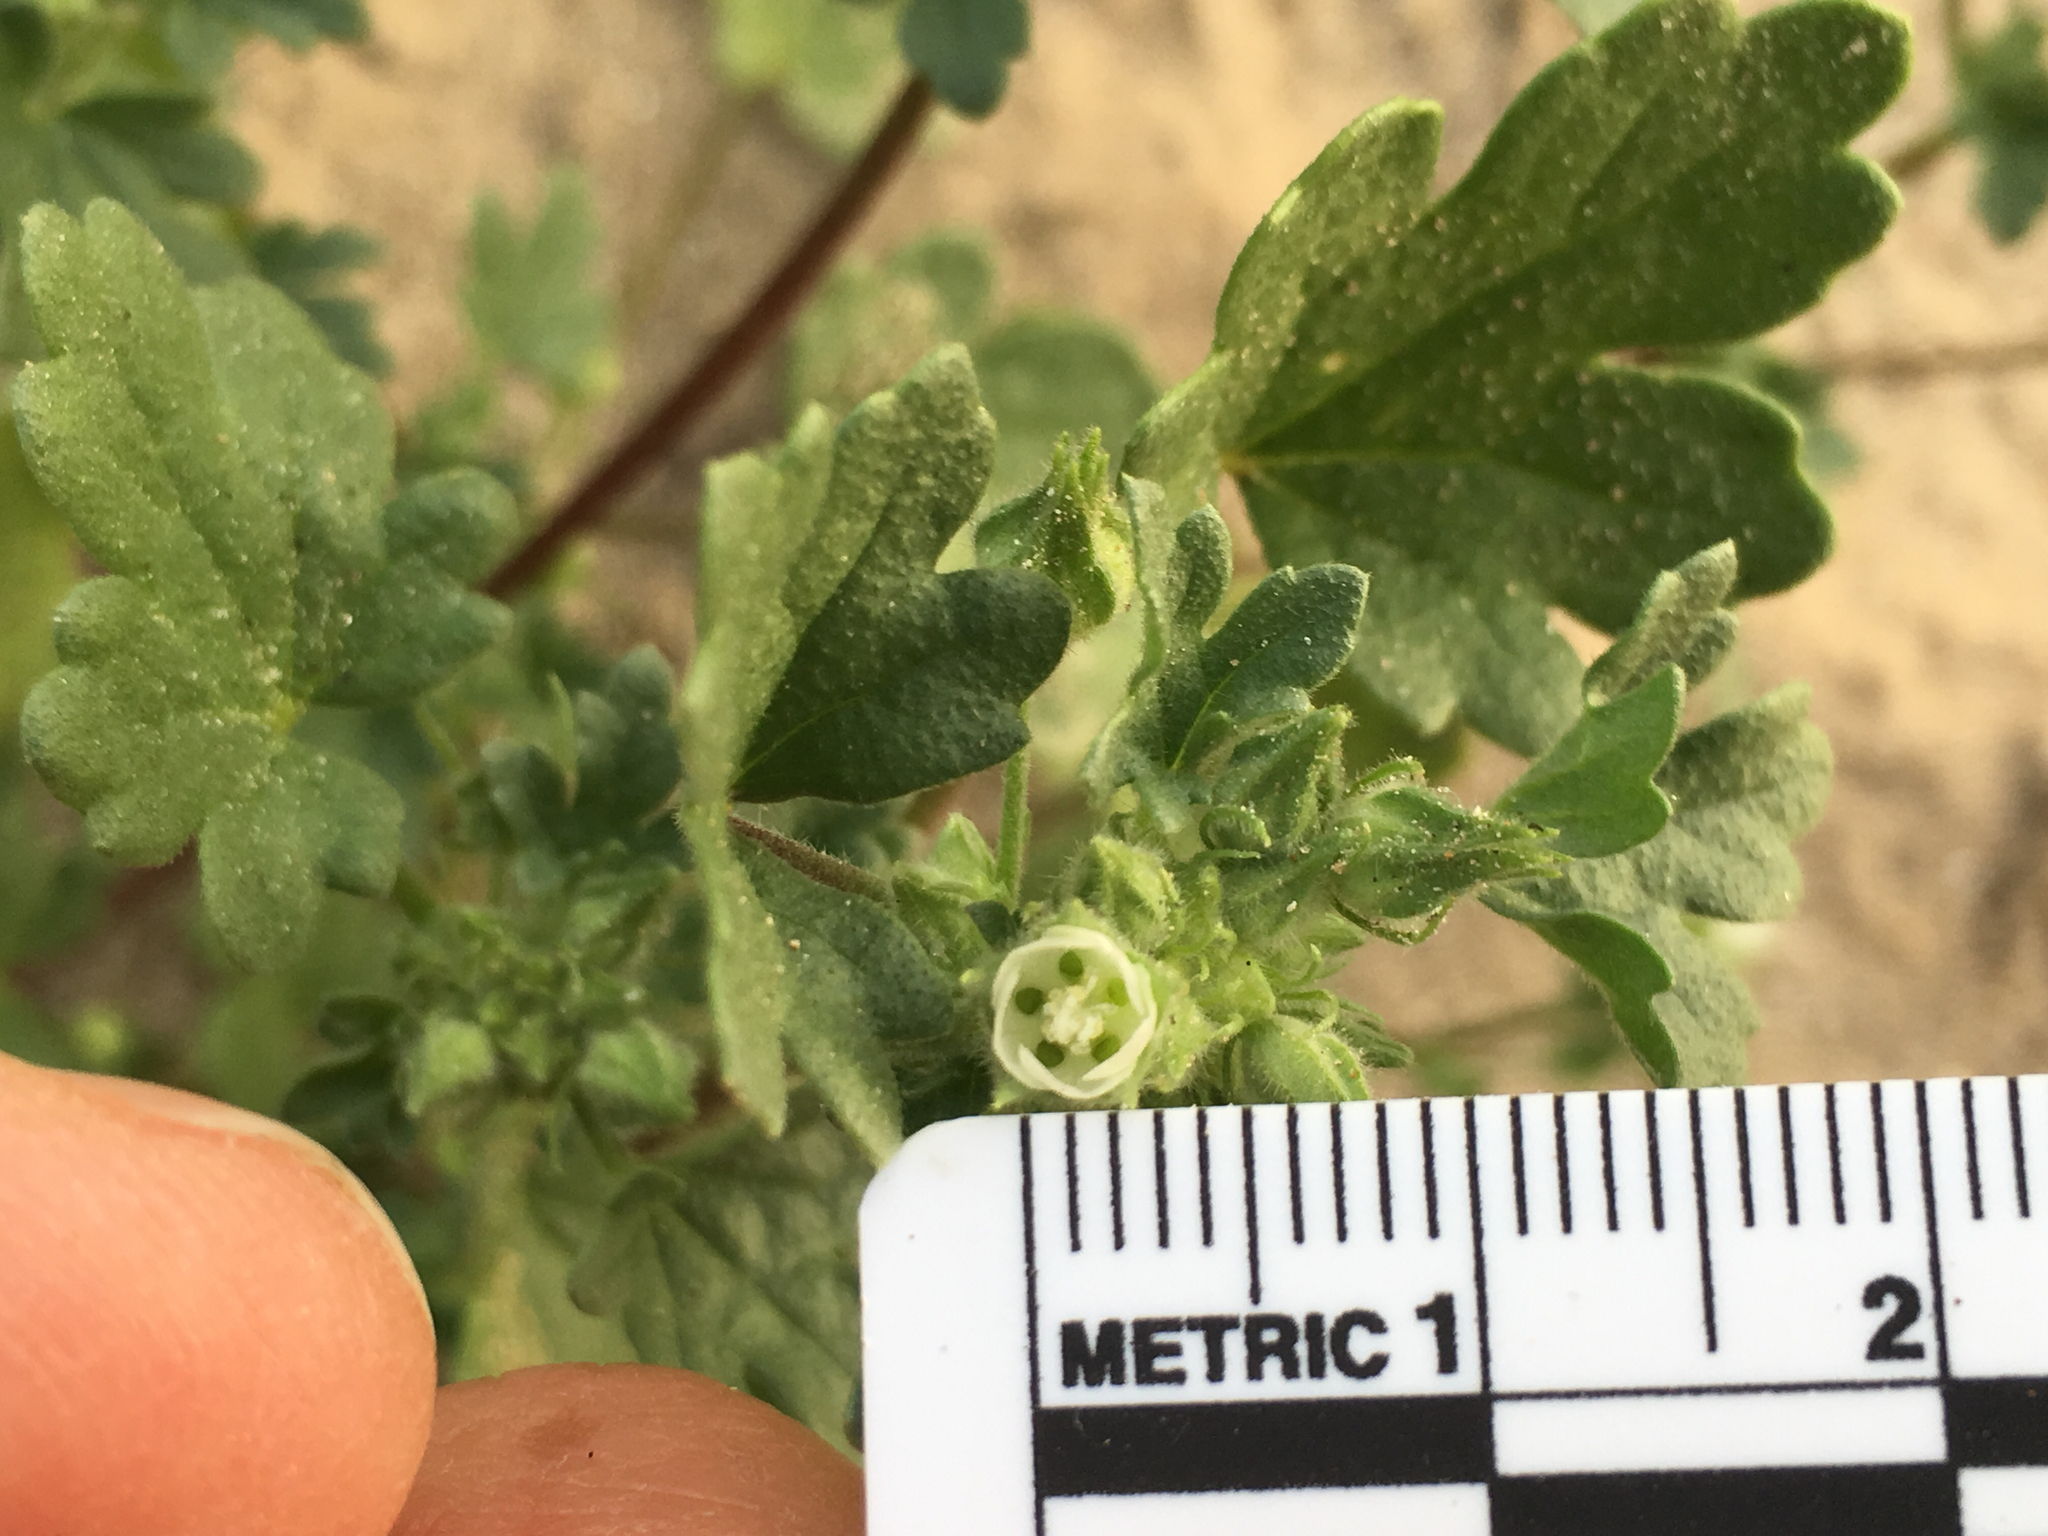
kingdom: Plantae
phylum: Tracheophyta
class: Magnoliopsida
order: Malvales
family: Malvaceae
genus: Eremalche
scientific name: Eremalche exilis
